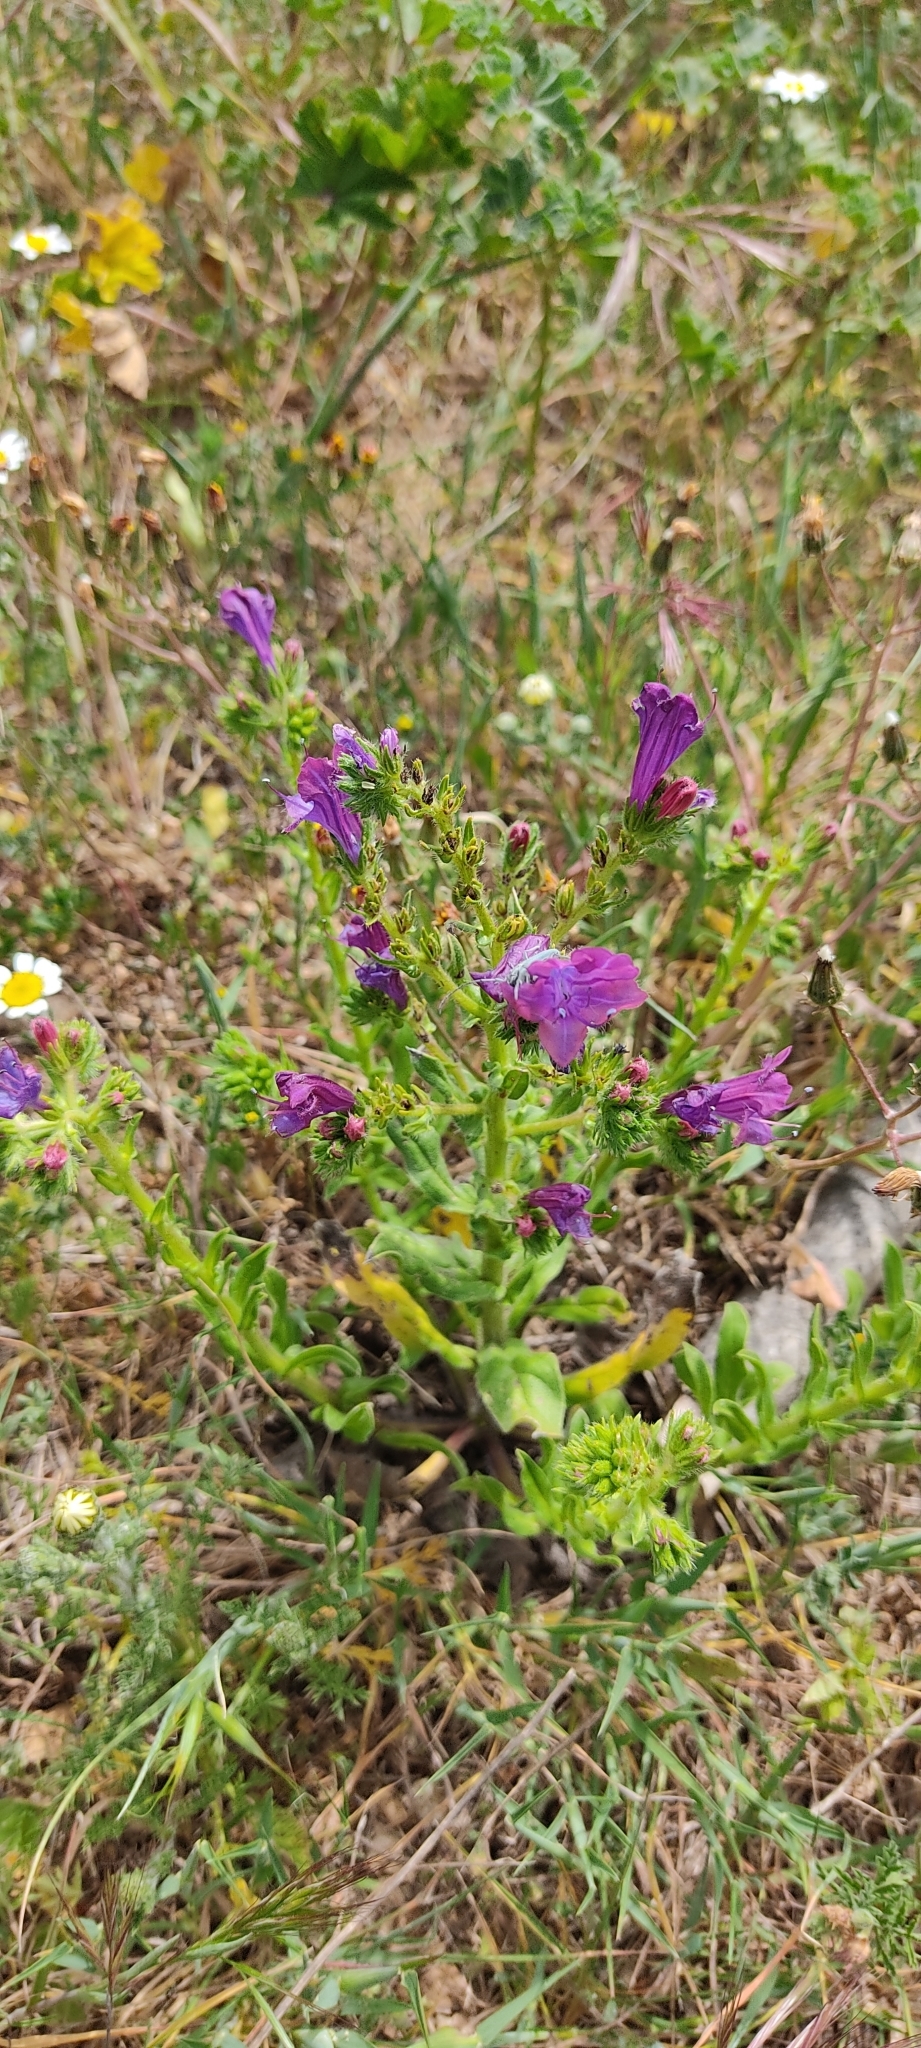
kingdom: Plantae
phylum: Tracheophyta
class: Magnoliopsida
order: Boraginales
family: Boraginaceae
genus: Echium
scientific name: Echium plantagineum
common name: Purple viper's-bugloss
